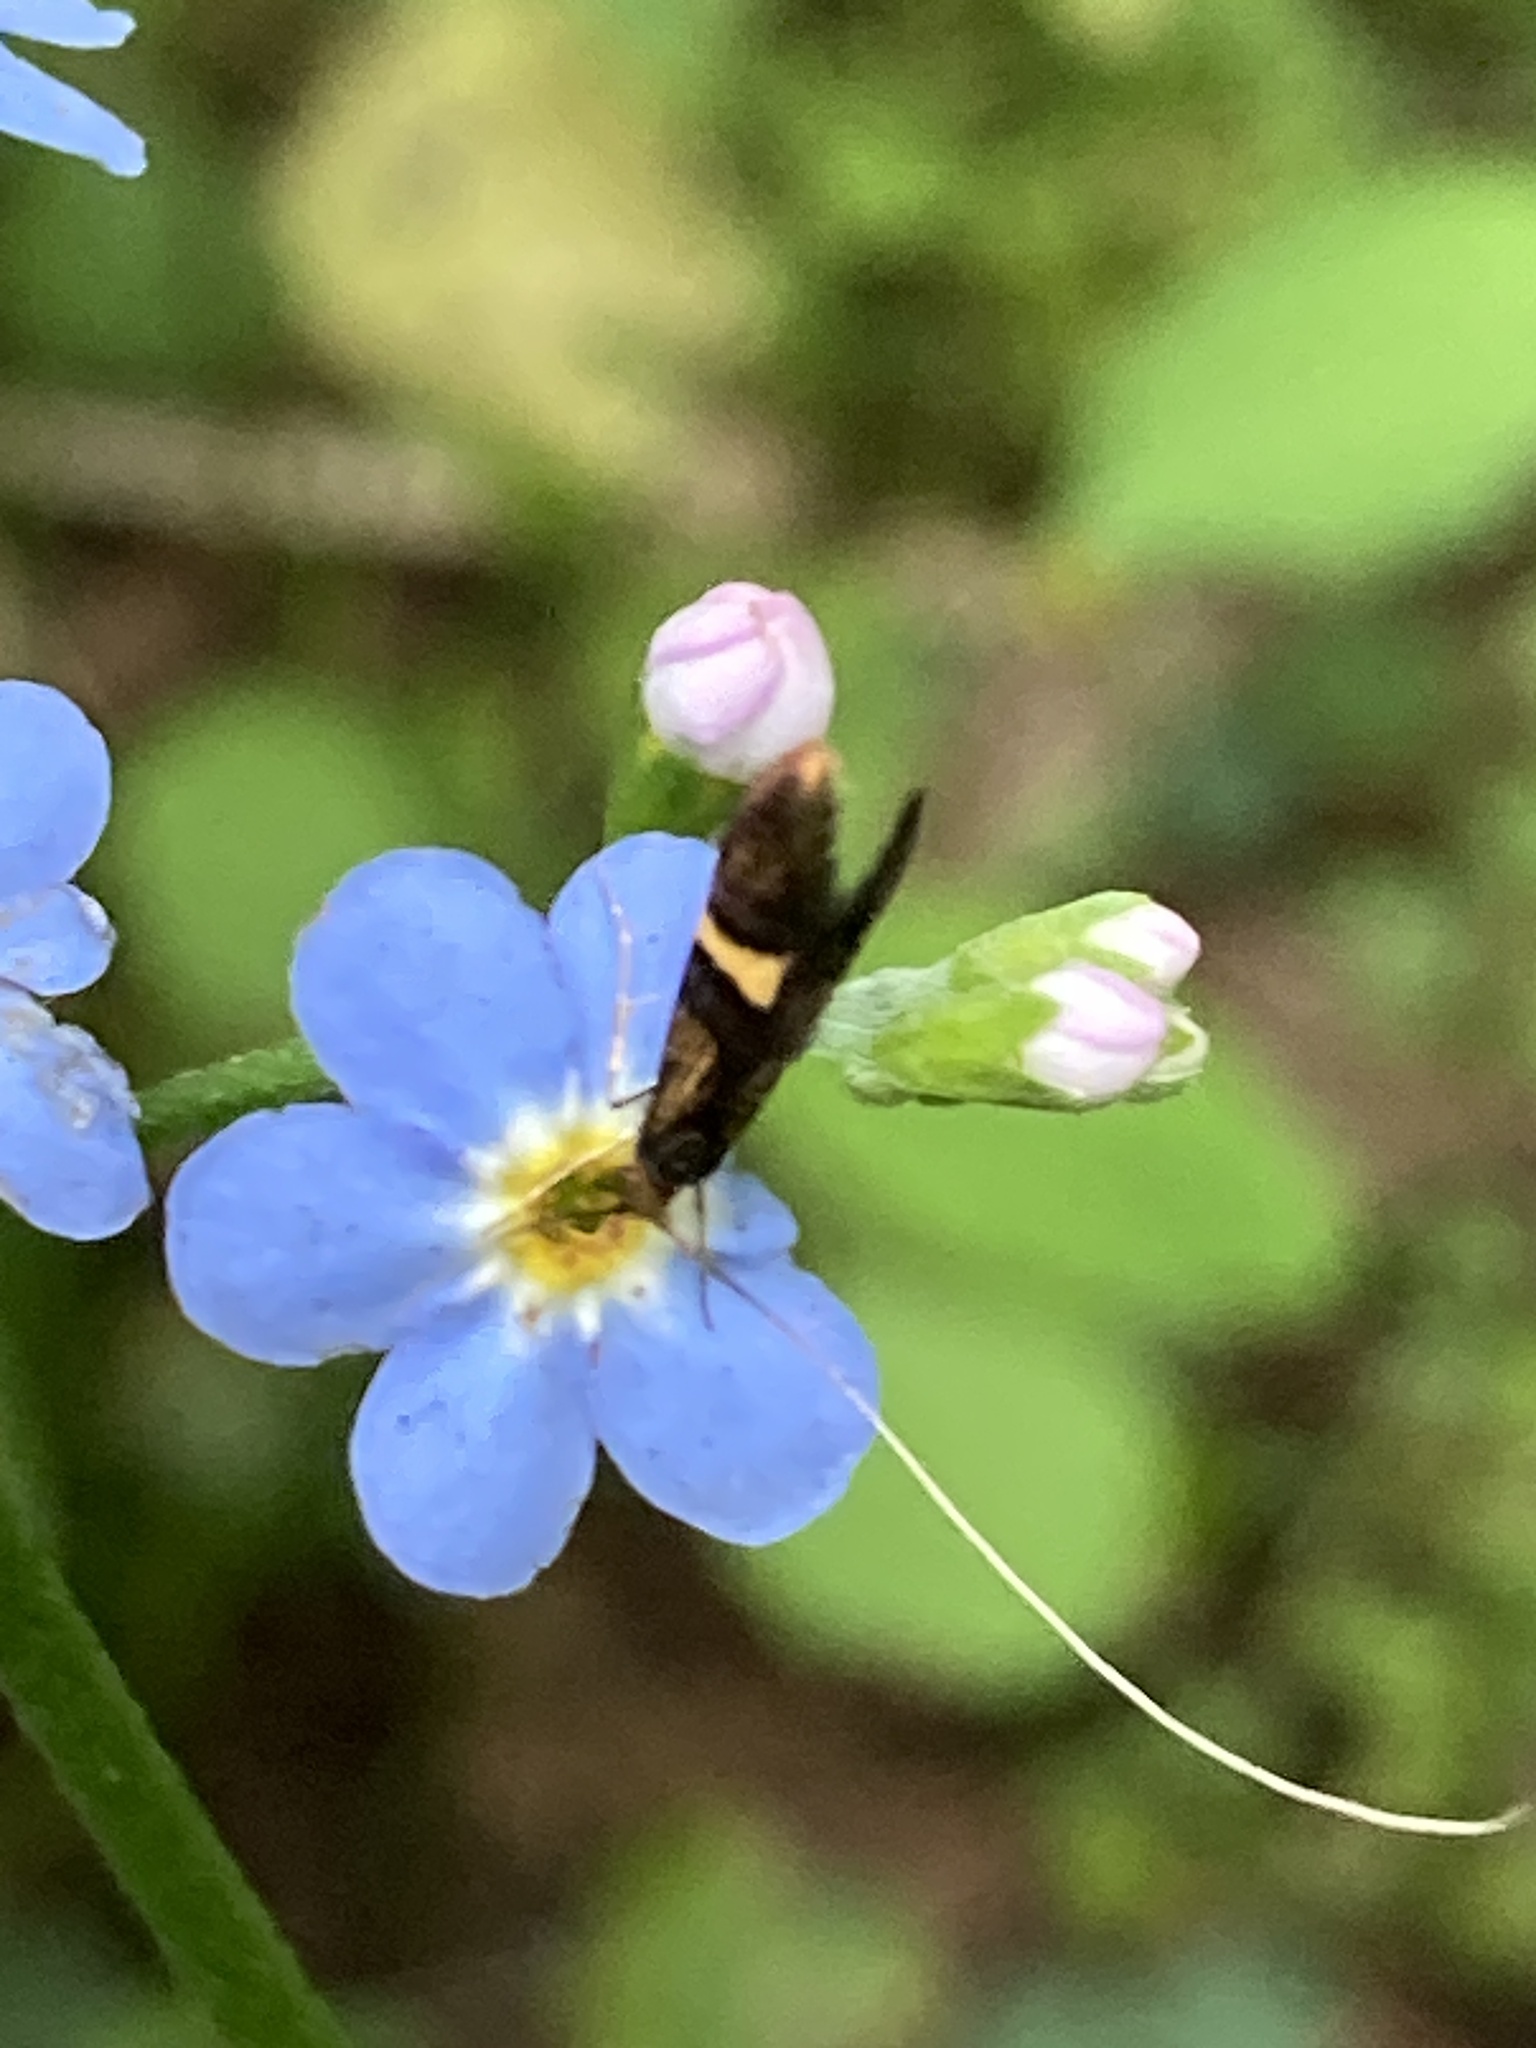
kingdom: Animalia
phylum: Arthropoda
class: Insecta
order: Lepidoptera
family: Adelidae
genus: Adela
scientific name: Adela croesella
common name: Small barred long-horn
